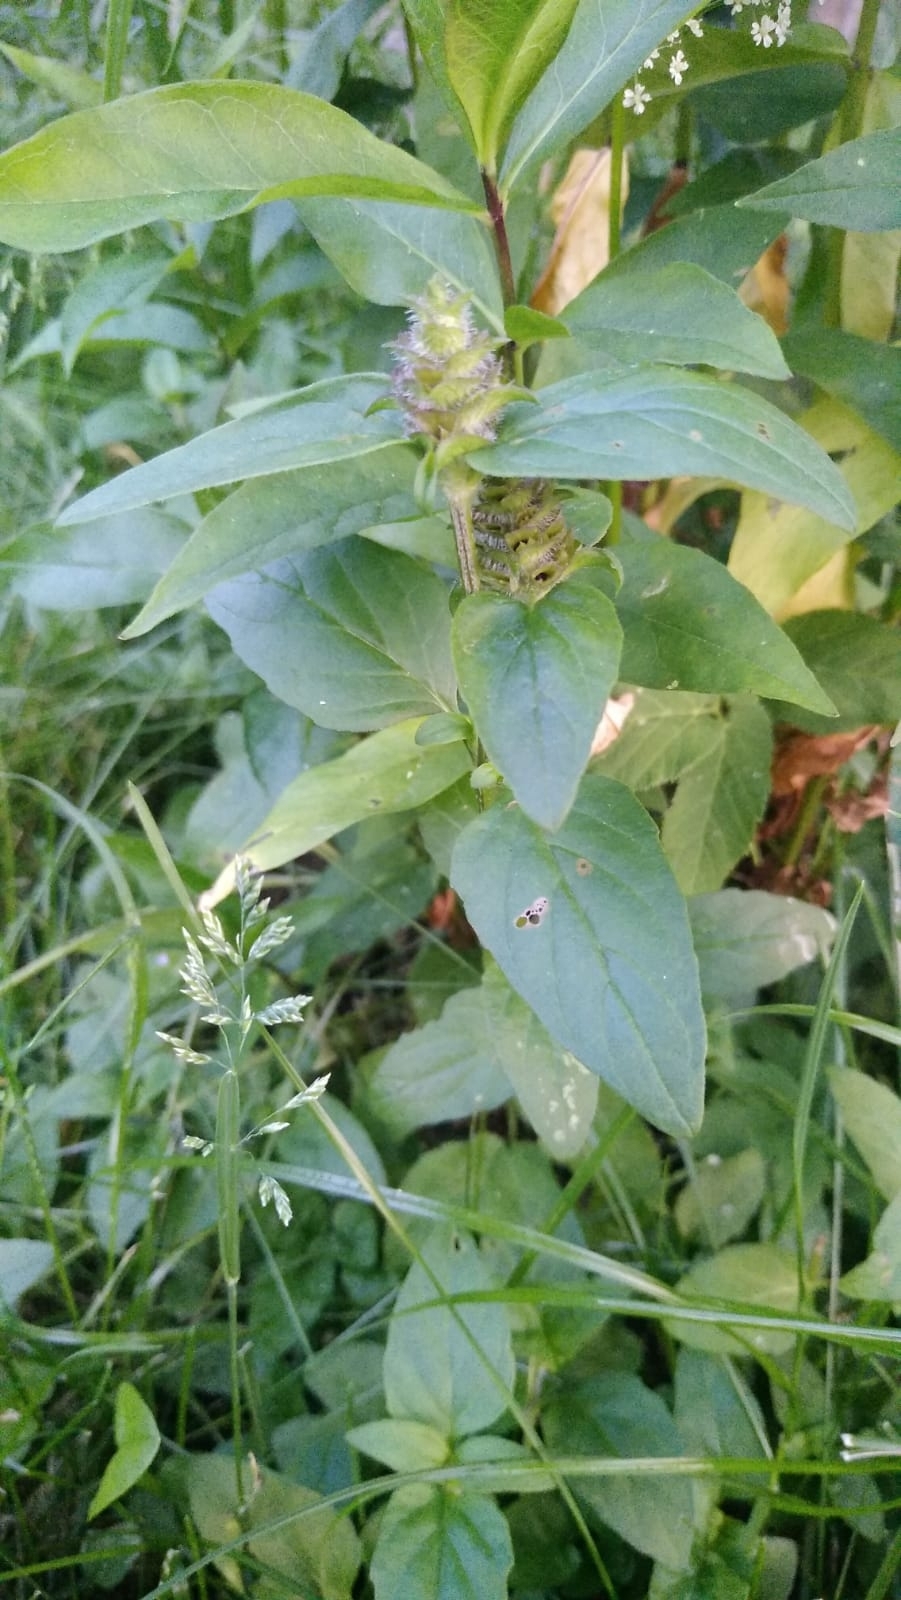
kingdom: Plantae
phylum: Tracheophyta
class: Magnoliopsida
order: Lamiales
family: Lamiaceae
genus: Prunella
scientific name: Prunella vulgaris
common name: Heal-all
